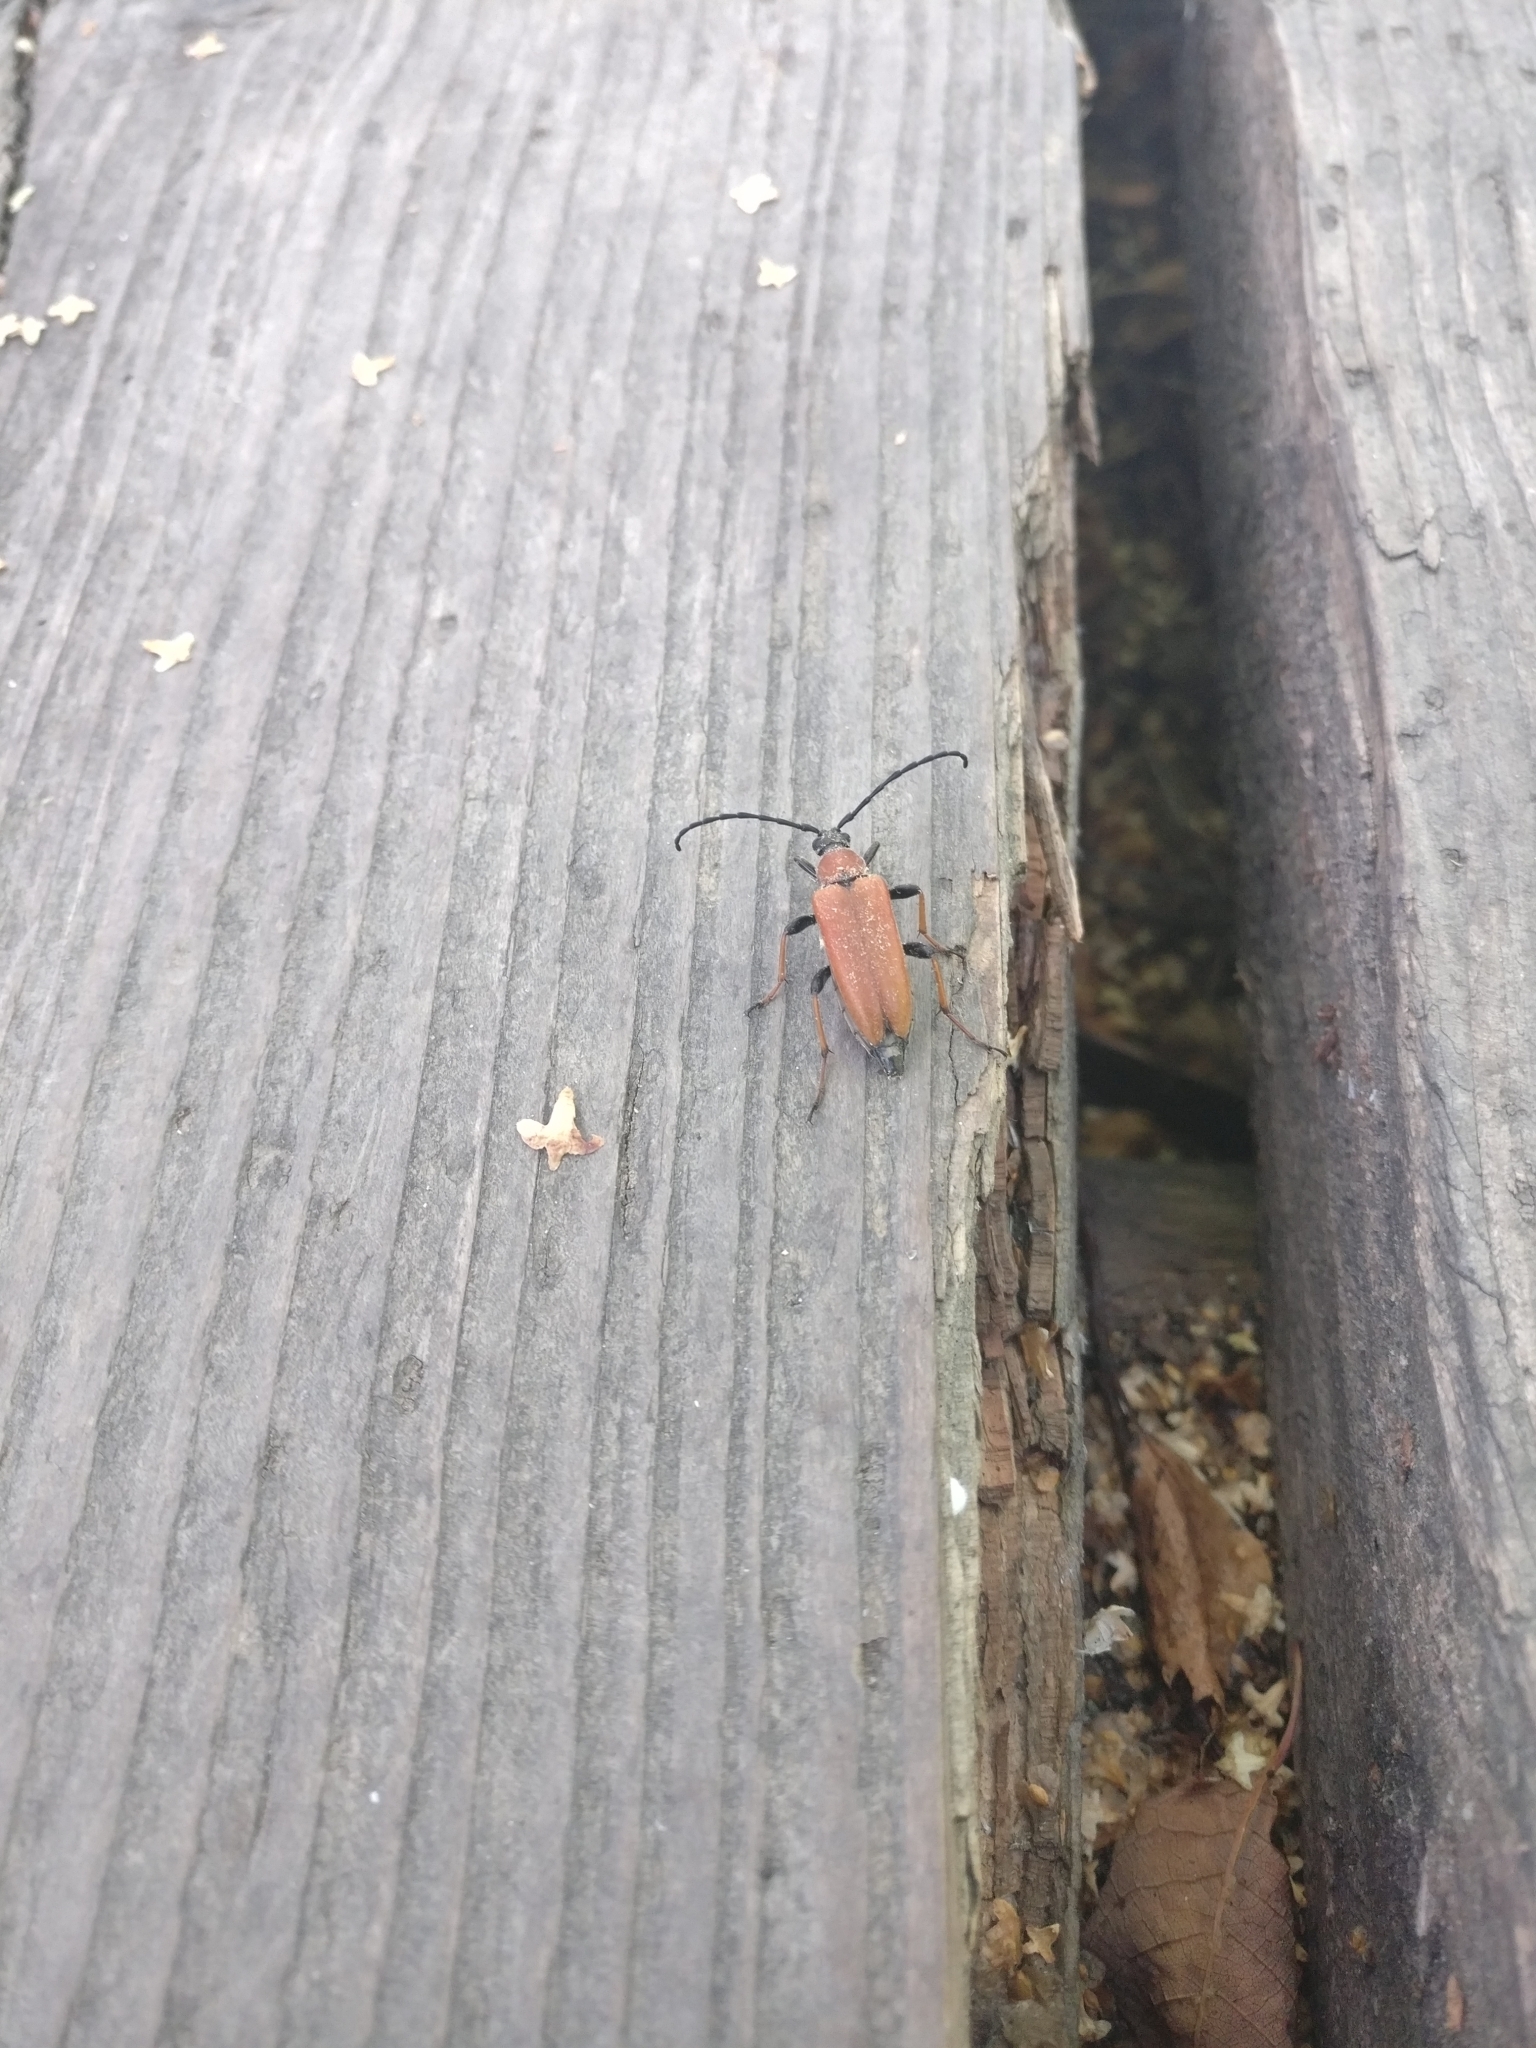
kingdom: Animalia
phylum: Arthropoda
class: Insecta
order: Coleoptera
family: Cerambycidae
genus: Stictoleptura
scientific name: Stictoleptura rubra
